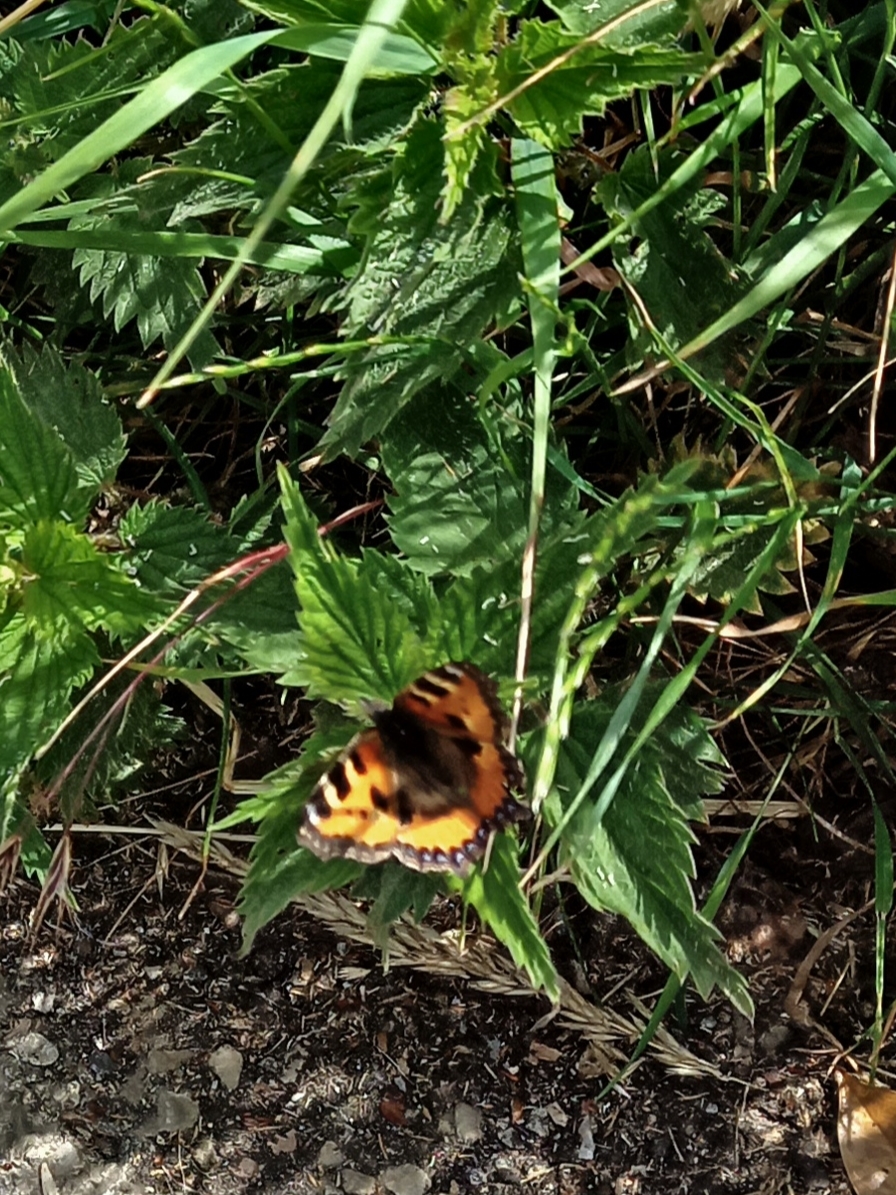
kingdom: Animalia
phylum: Arthropoda
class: Insecta
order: Lepidoptera
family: Nymphalidae
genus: Aglais
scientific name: Aglais urticae
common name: Small tortoiseshell
